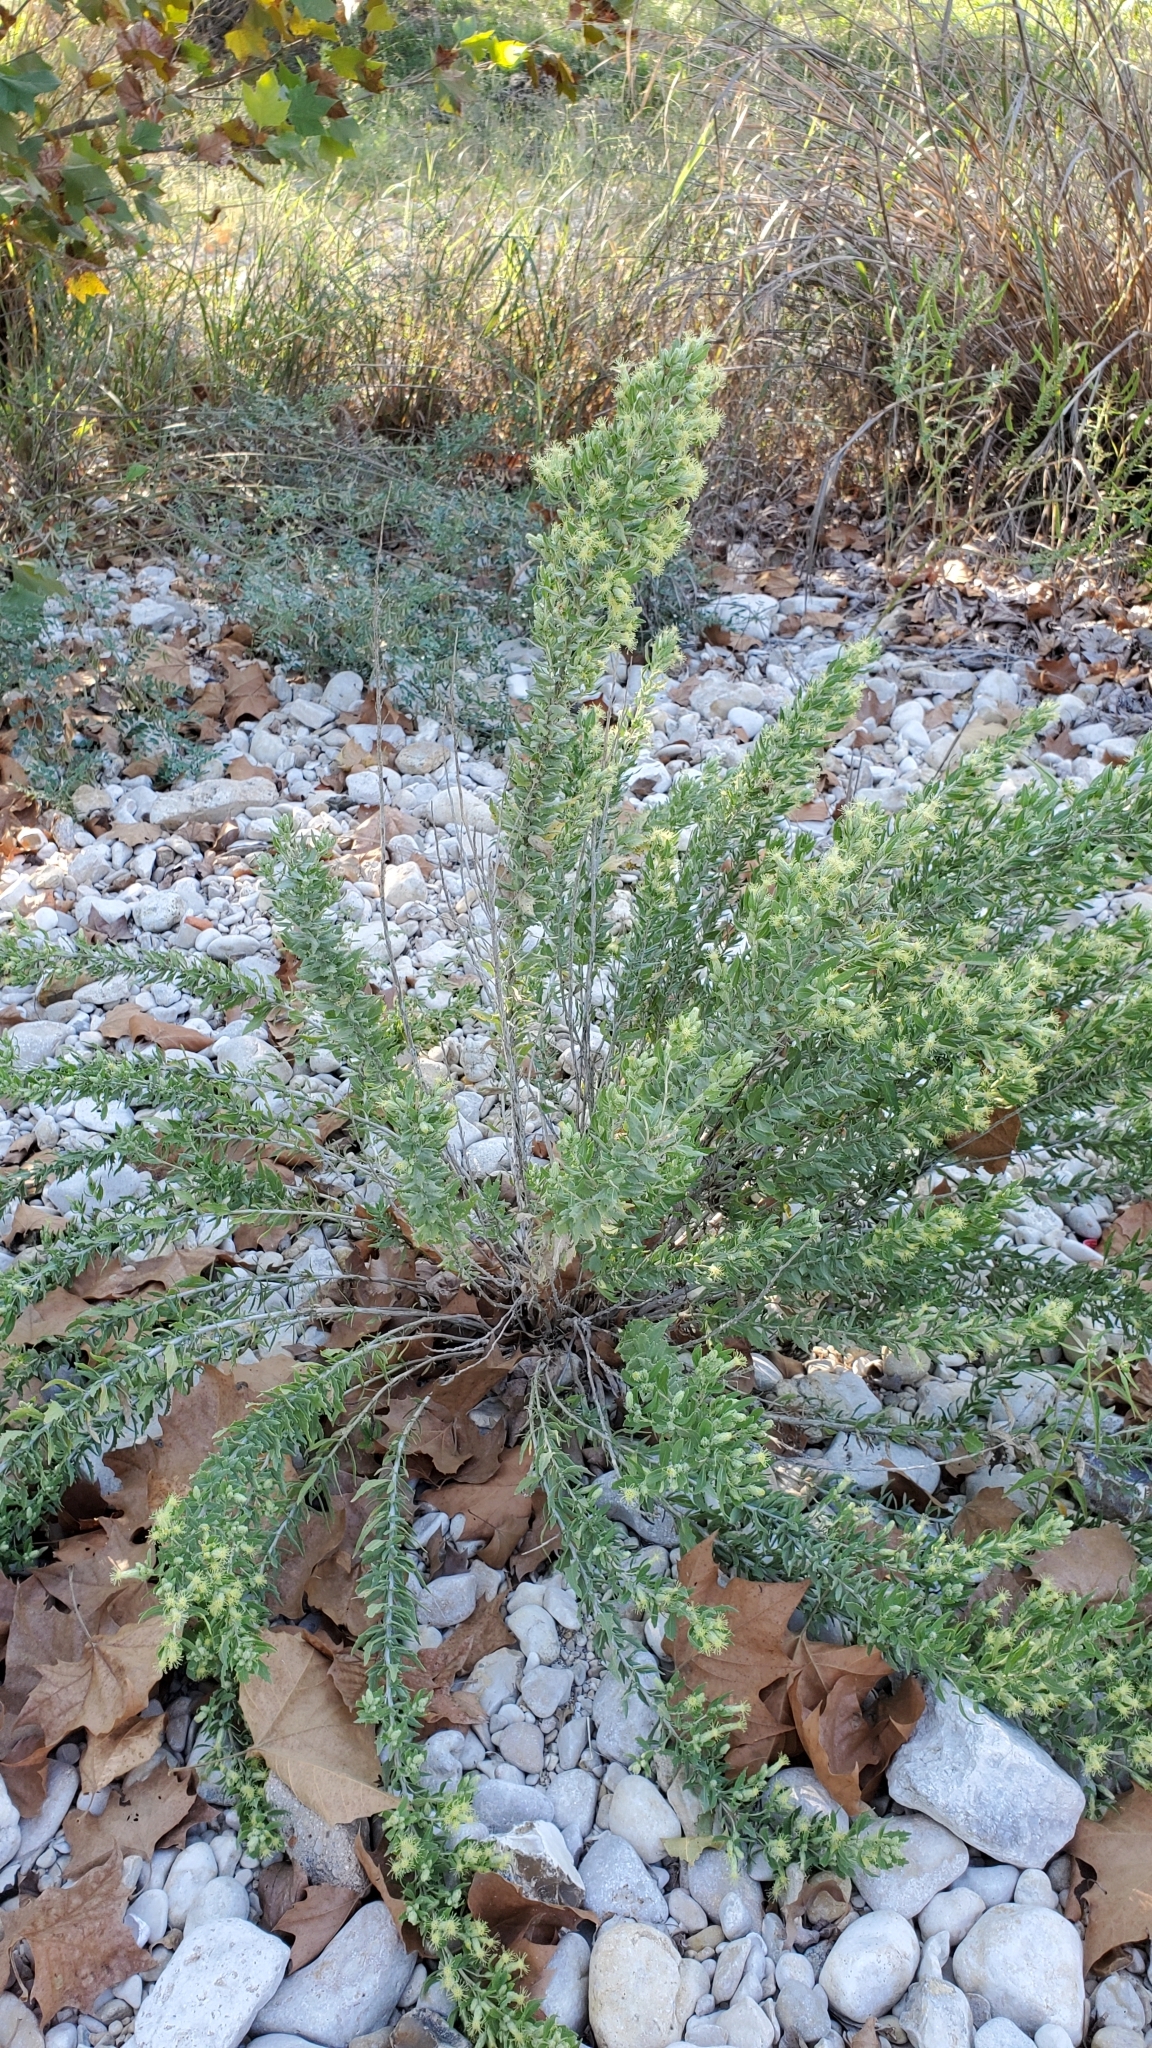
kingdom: Plantae
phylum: Tracheophyta
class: Magnoliopsida
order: Asterales
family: Asteraceae
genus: Brickellia
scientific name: Brickellia dentata
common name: Leafy brickellbush
